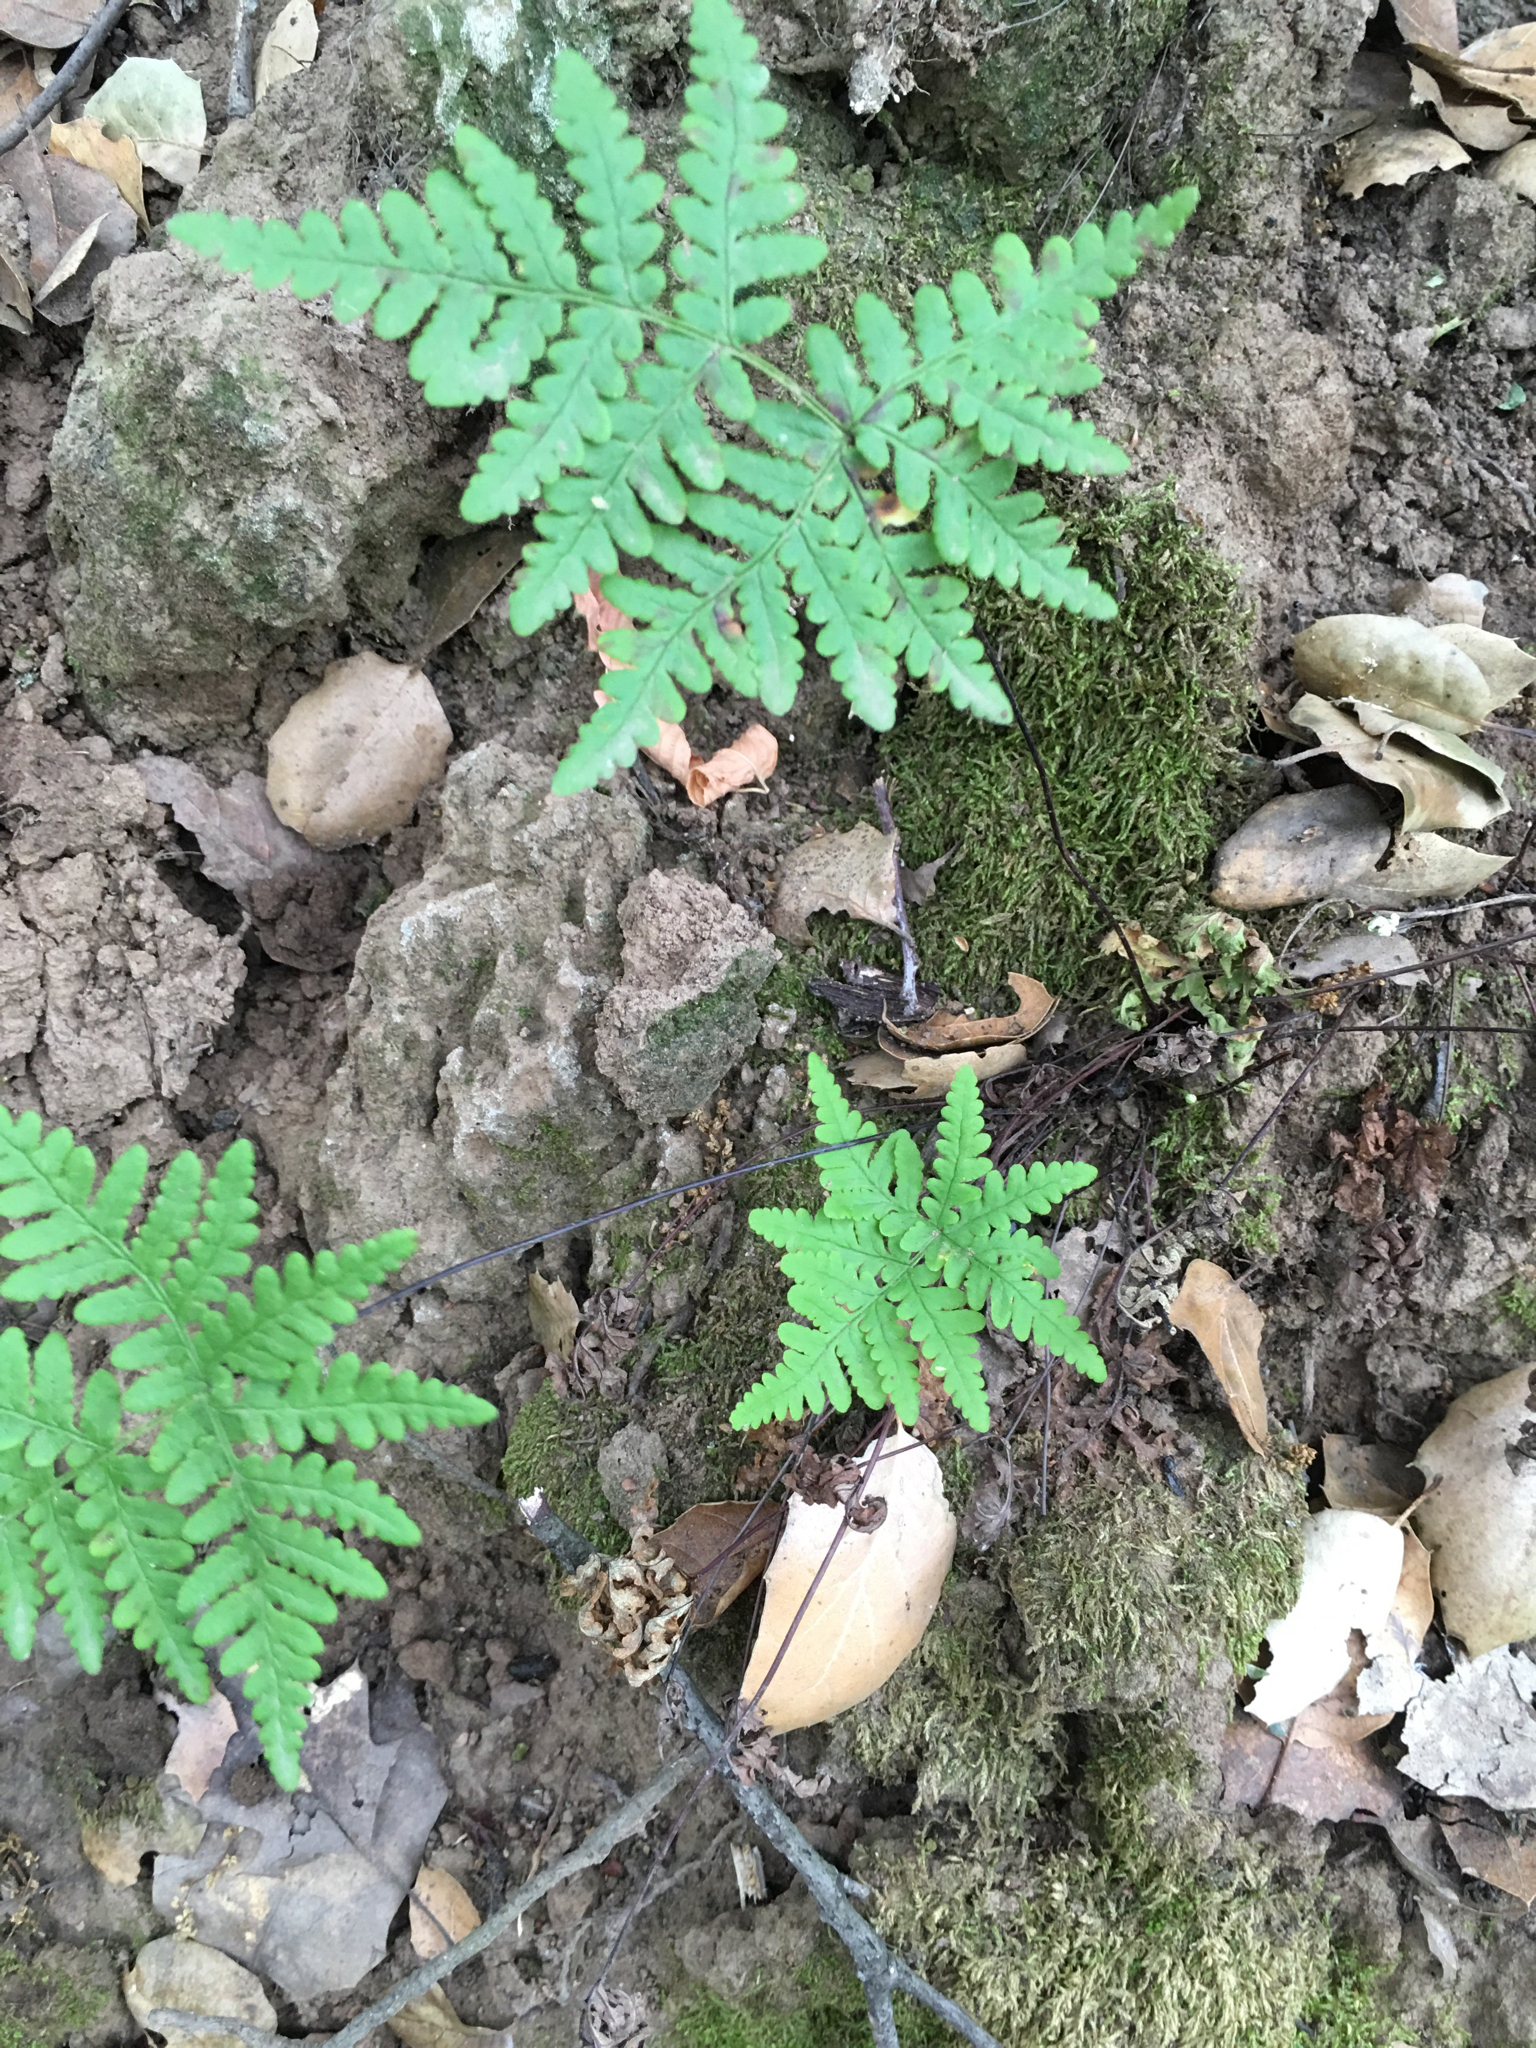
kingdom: Plantae
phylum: Tracheophyta
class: Polypodiopsida
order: Polypodiales
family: Pteridaceae
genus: Pentagramma
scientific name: Pentagramma triangularis
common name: Gold fern
